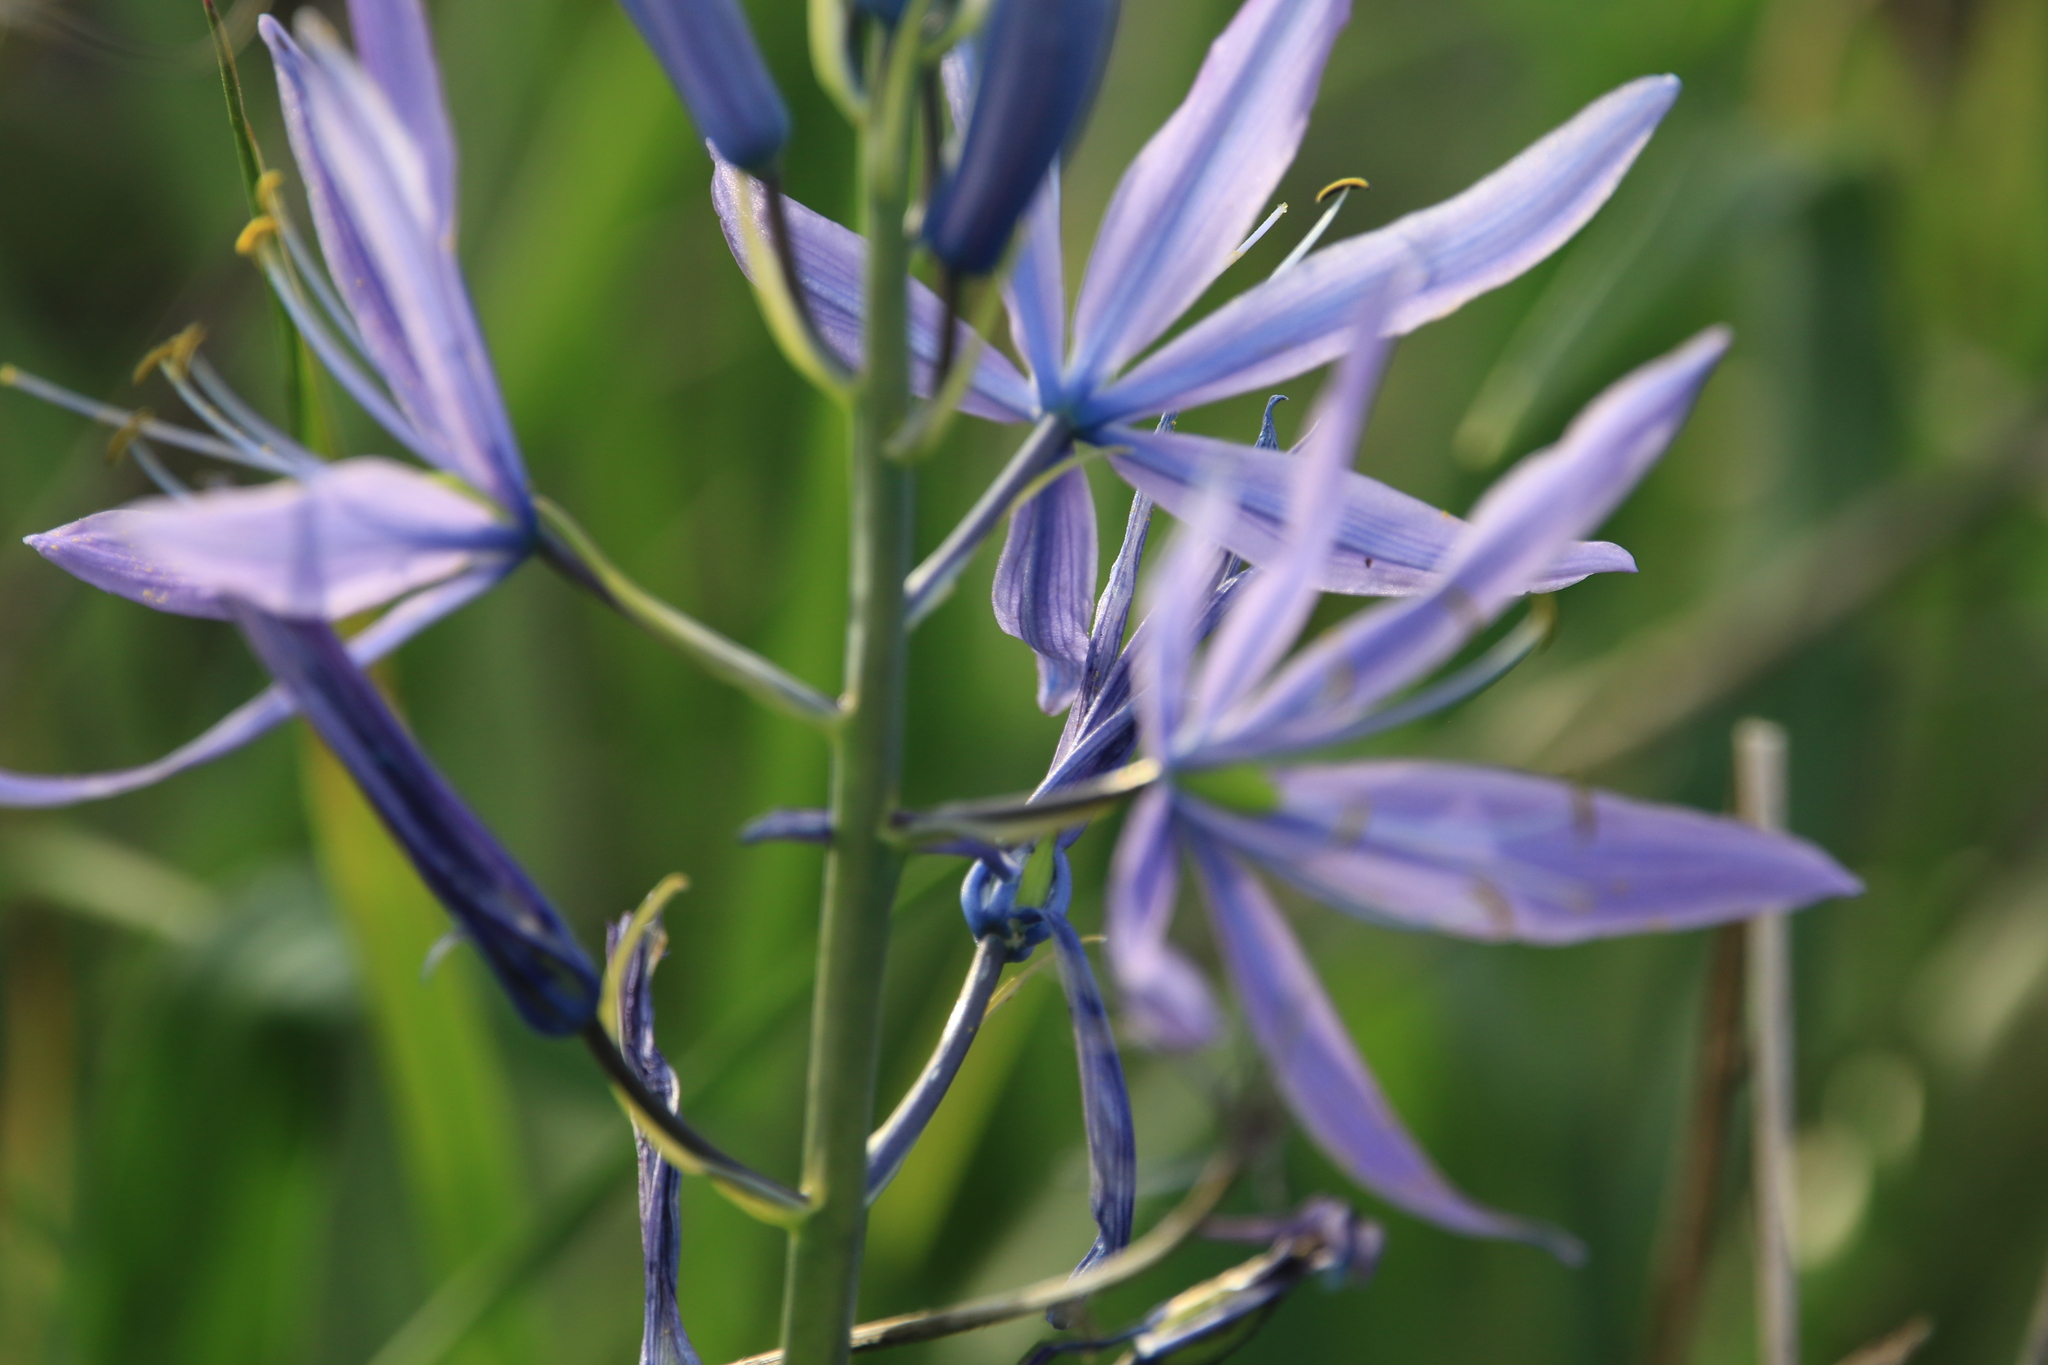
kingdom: Plantae
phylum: Tracheophyta
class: Liliopsida
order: Asparagales
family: Asparagaceae
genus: Camassia
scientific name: Camassia leichtlinii
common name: Leichtlin's camas
